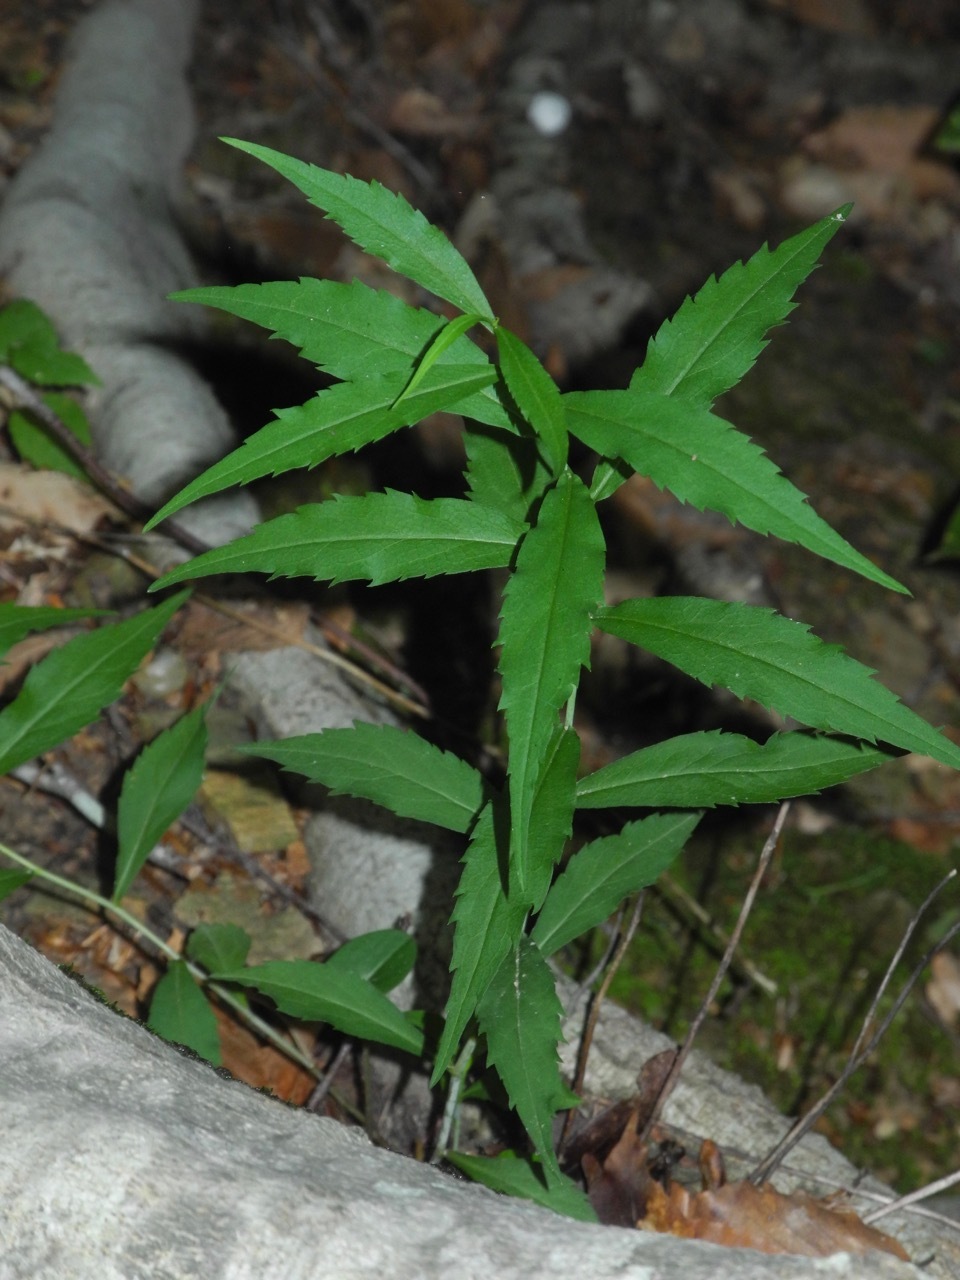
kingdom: Plantae
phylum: Tracheophyta
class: Magnoliopsida
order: Asterales
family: Asteraceae
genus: Solidago
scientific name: Solidago caesia
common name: Woodland goldenrod
